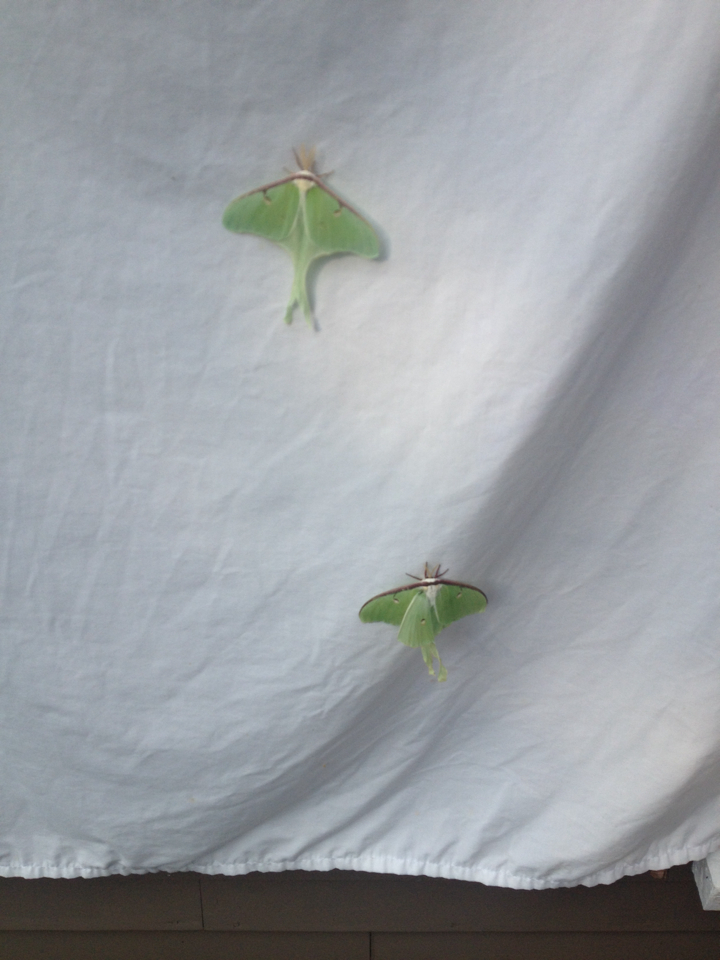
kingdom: Animalia
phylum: Arthropoda
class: Insecta
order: Lepidoptera
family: Saturniidae
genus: Actias
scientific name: Actias luna
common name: Luna moth
